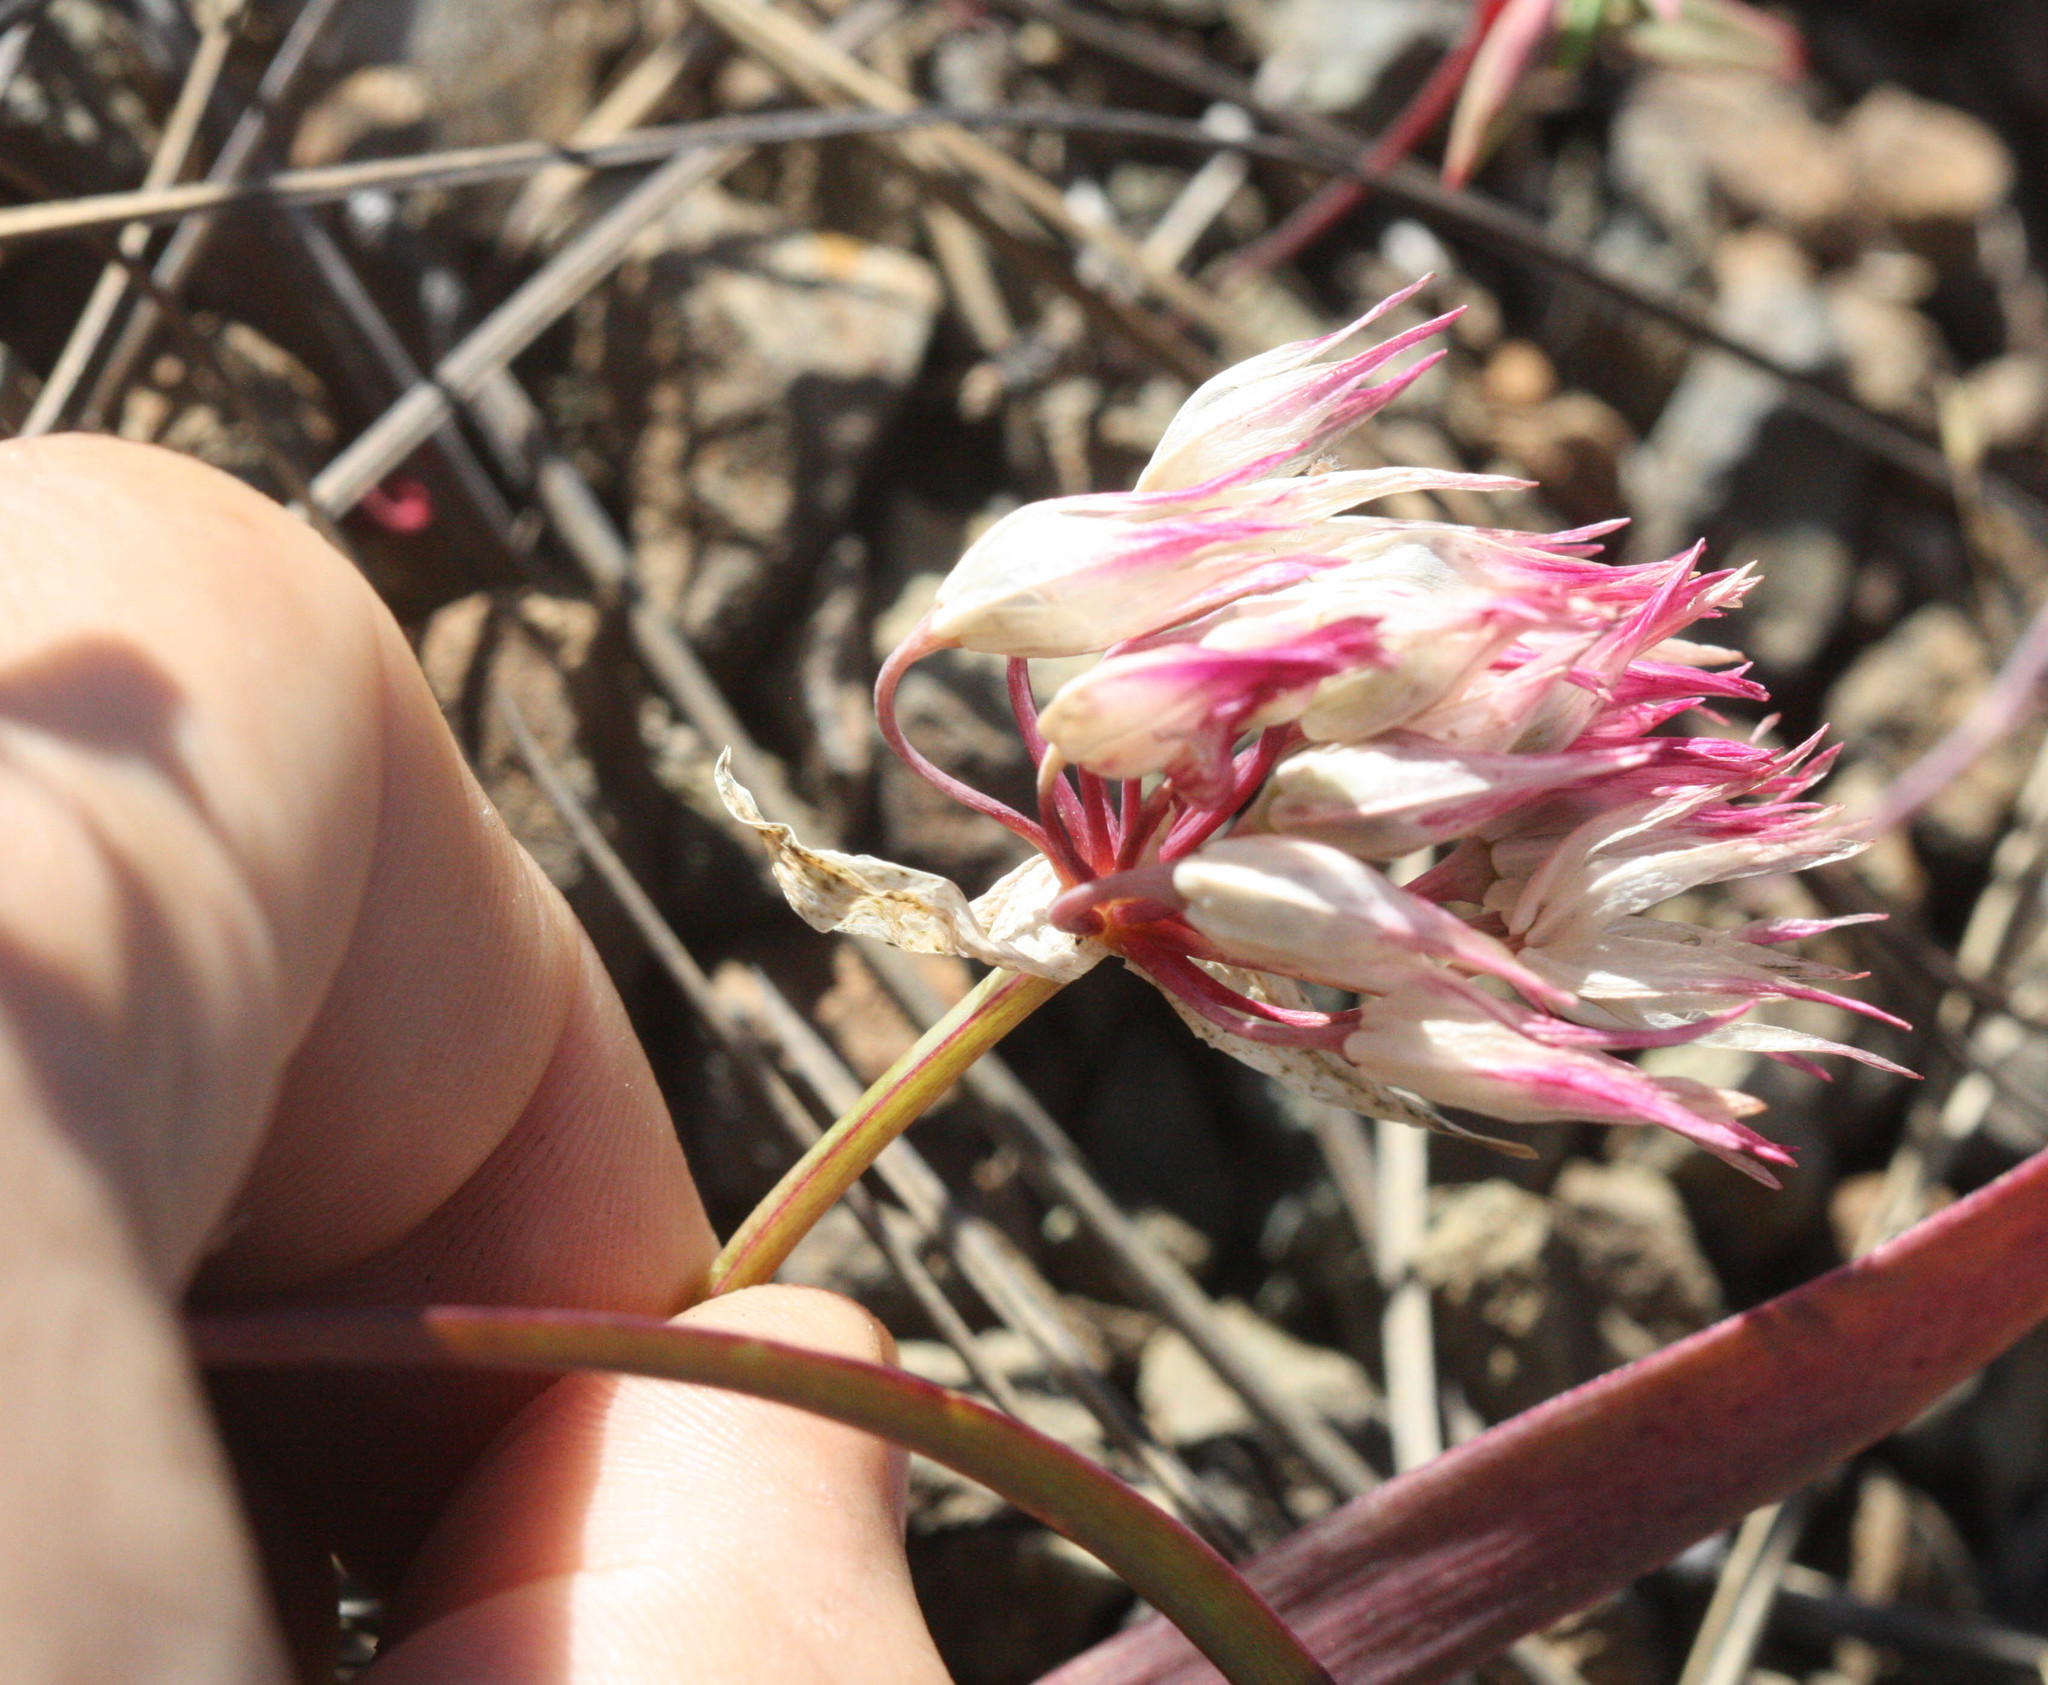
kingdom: Plantae
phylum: Tracheophyta
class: Liliopsida
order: Asparagales
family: Amaryllidaceae
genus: Allium
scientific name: Allium falcifolium
